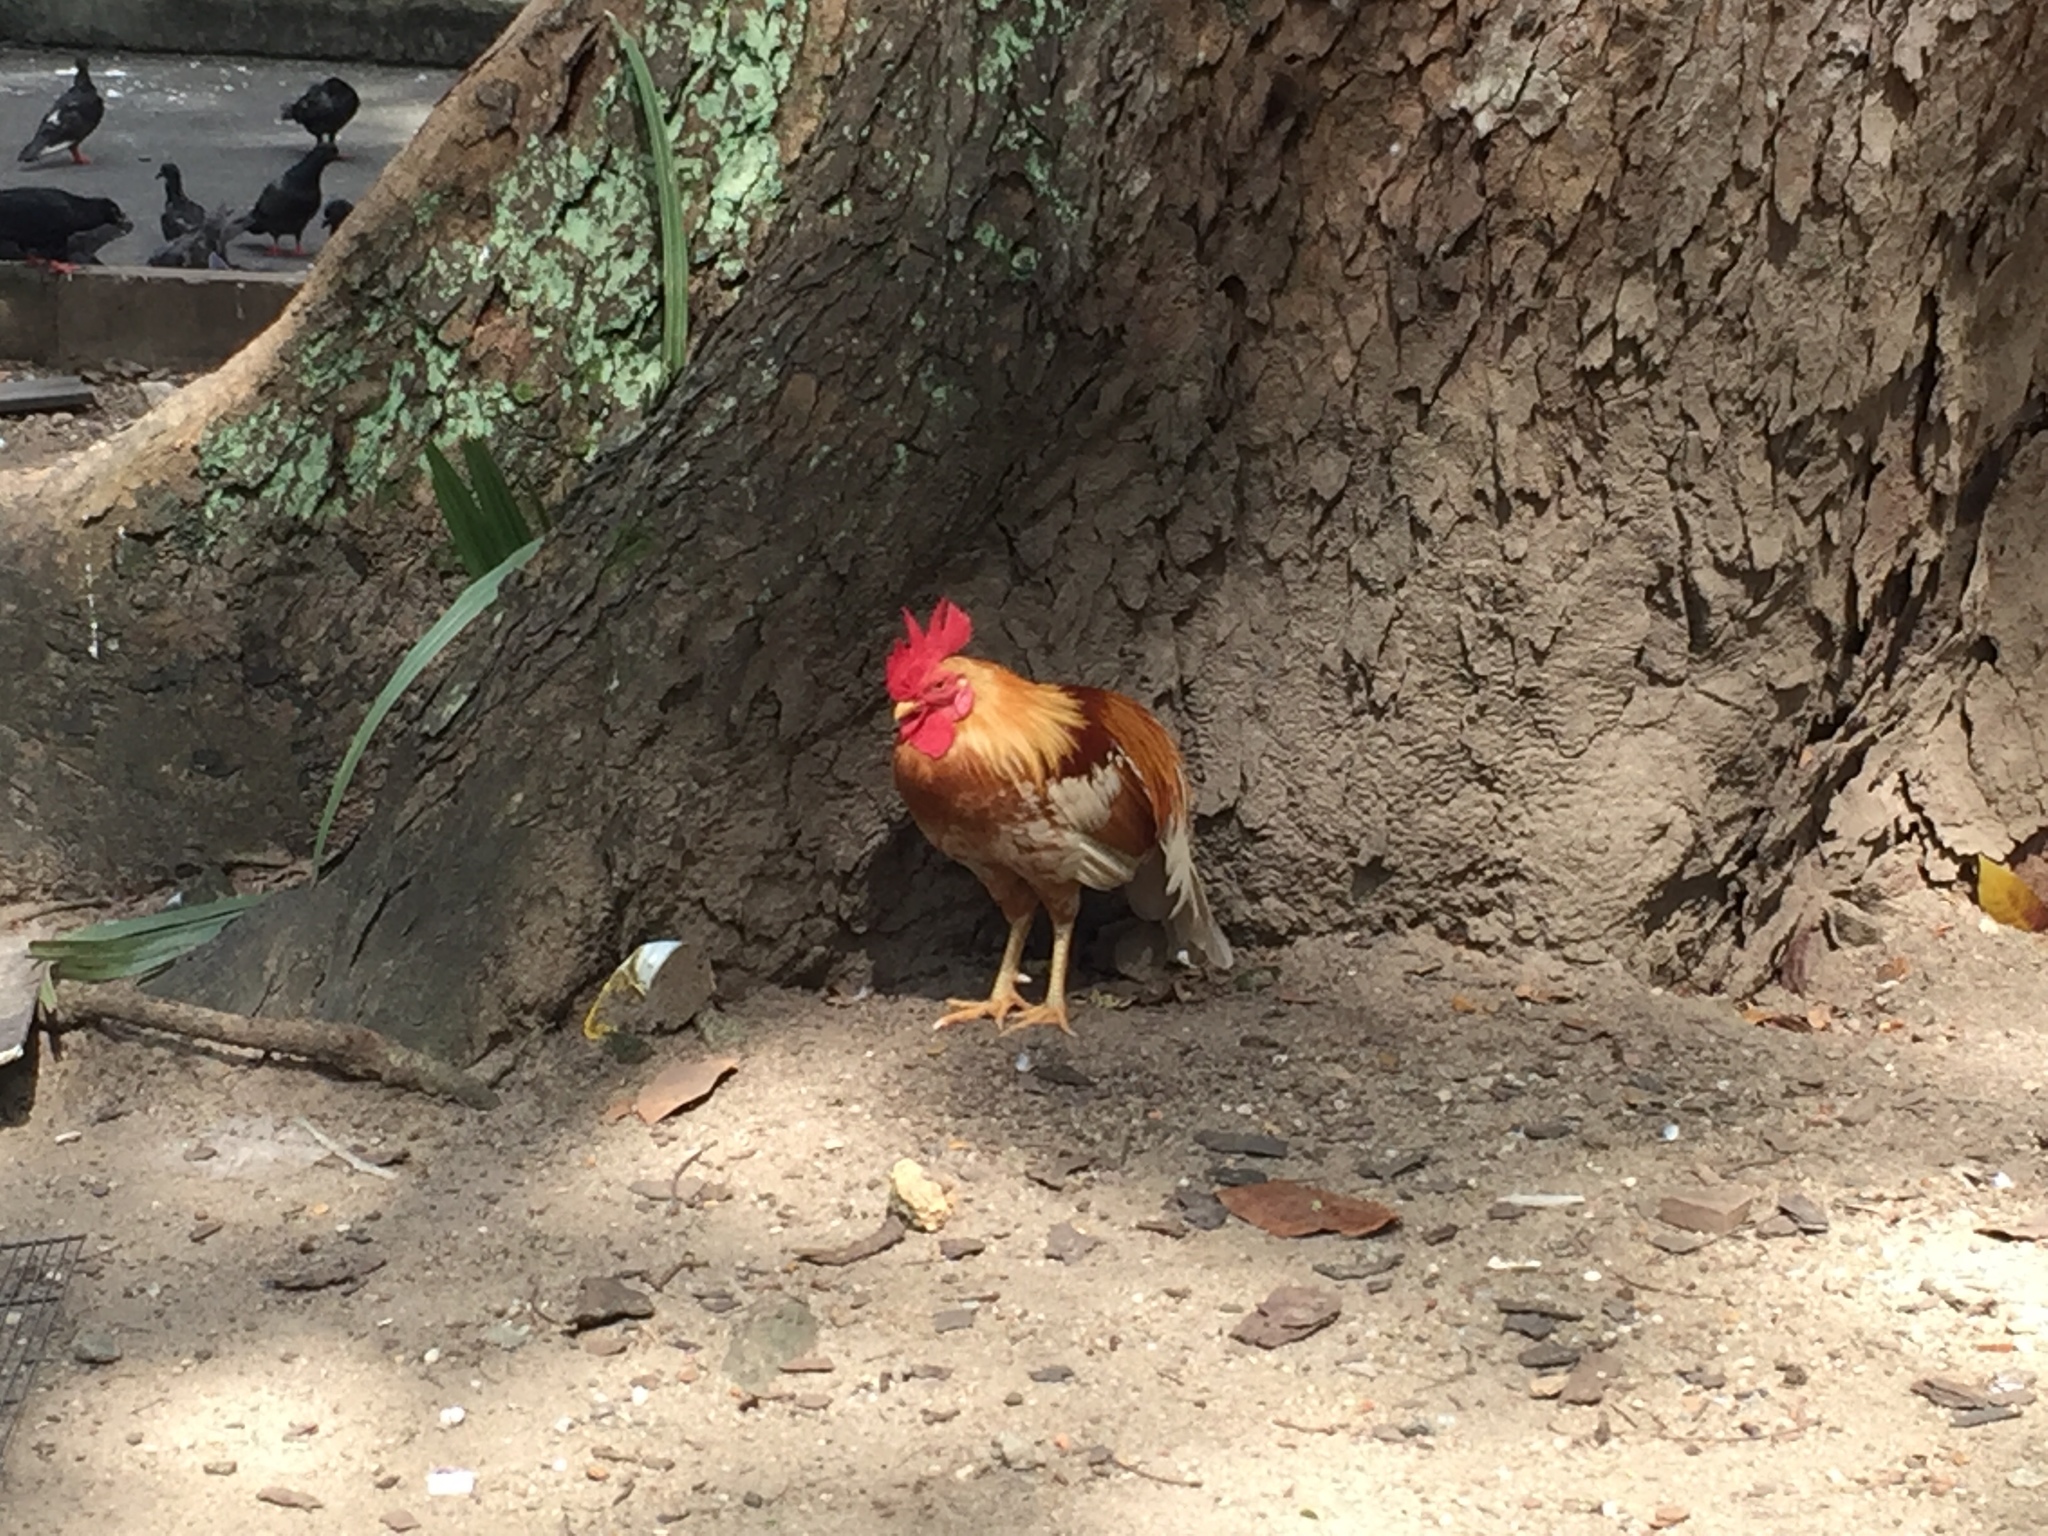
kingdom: Animalia
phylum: Chordata
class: Aves
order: Galliformes
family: Phasianidae
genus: Gallus
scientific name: Gallus gallus
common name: Red junglefowl
